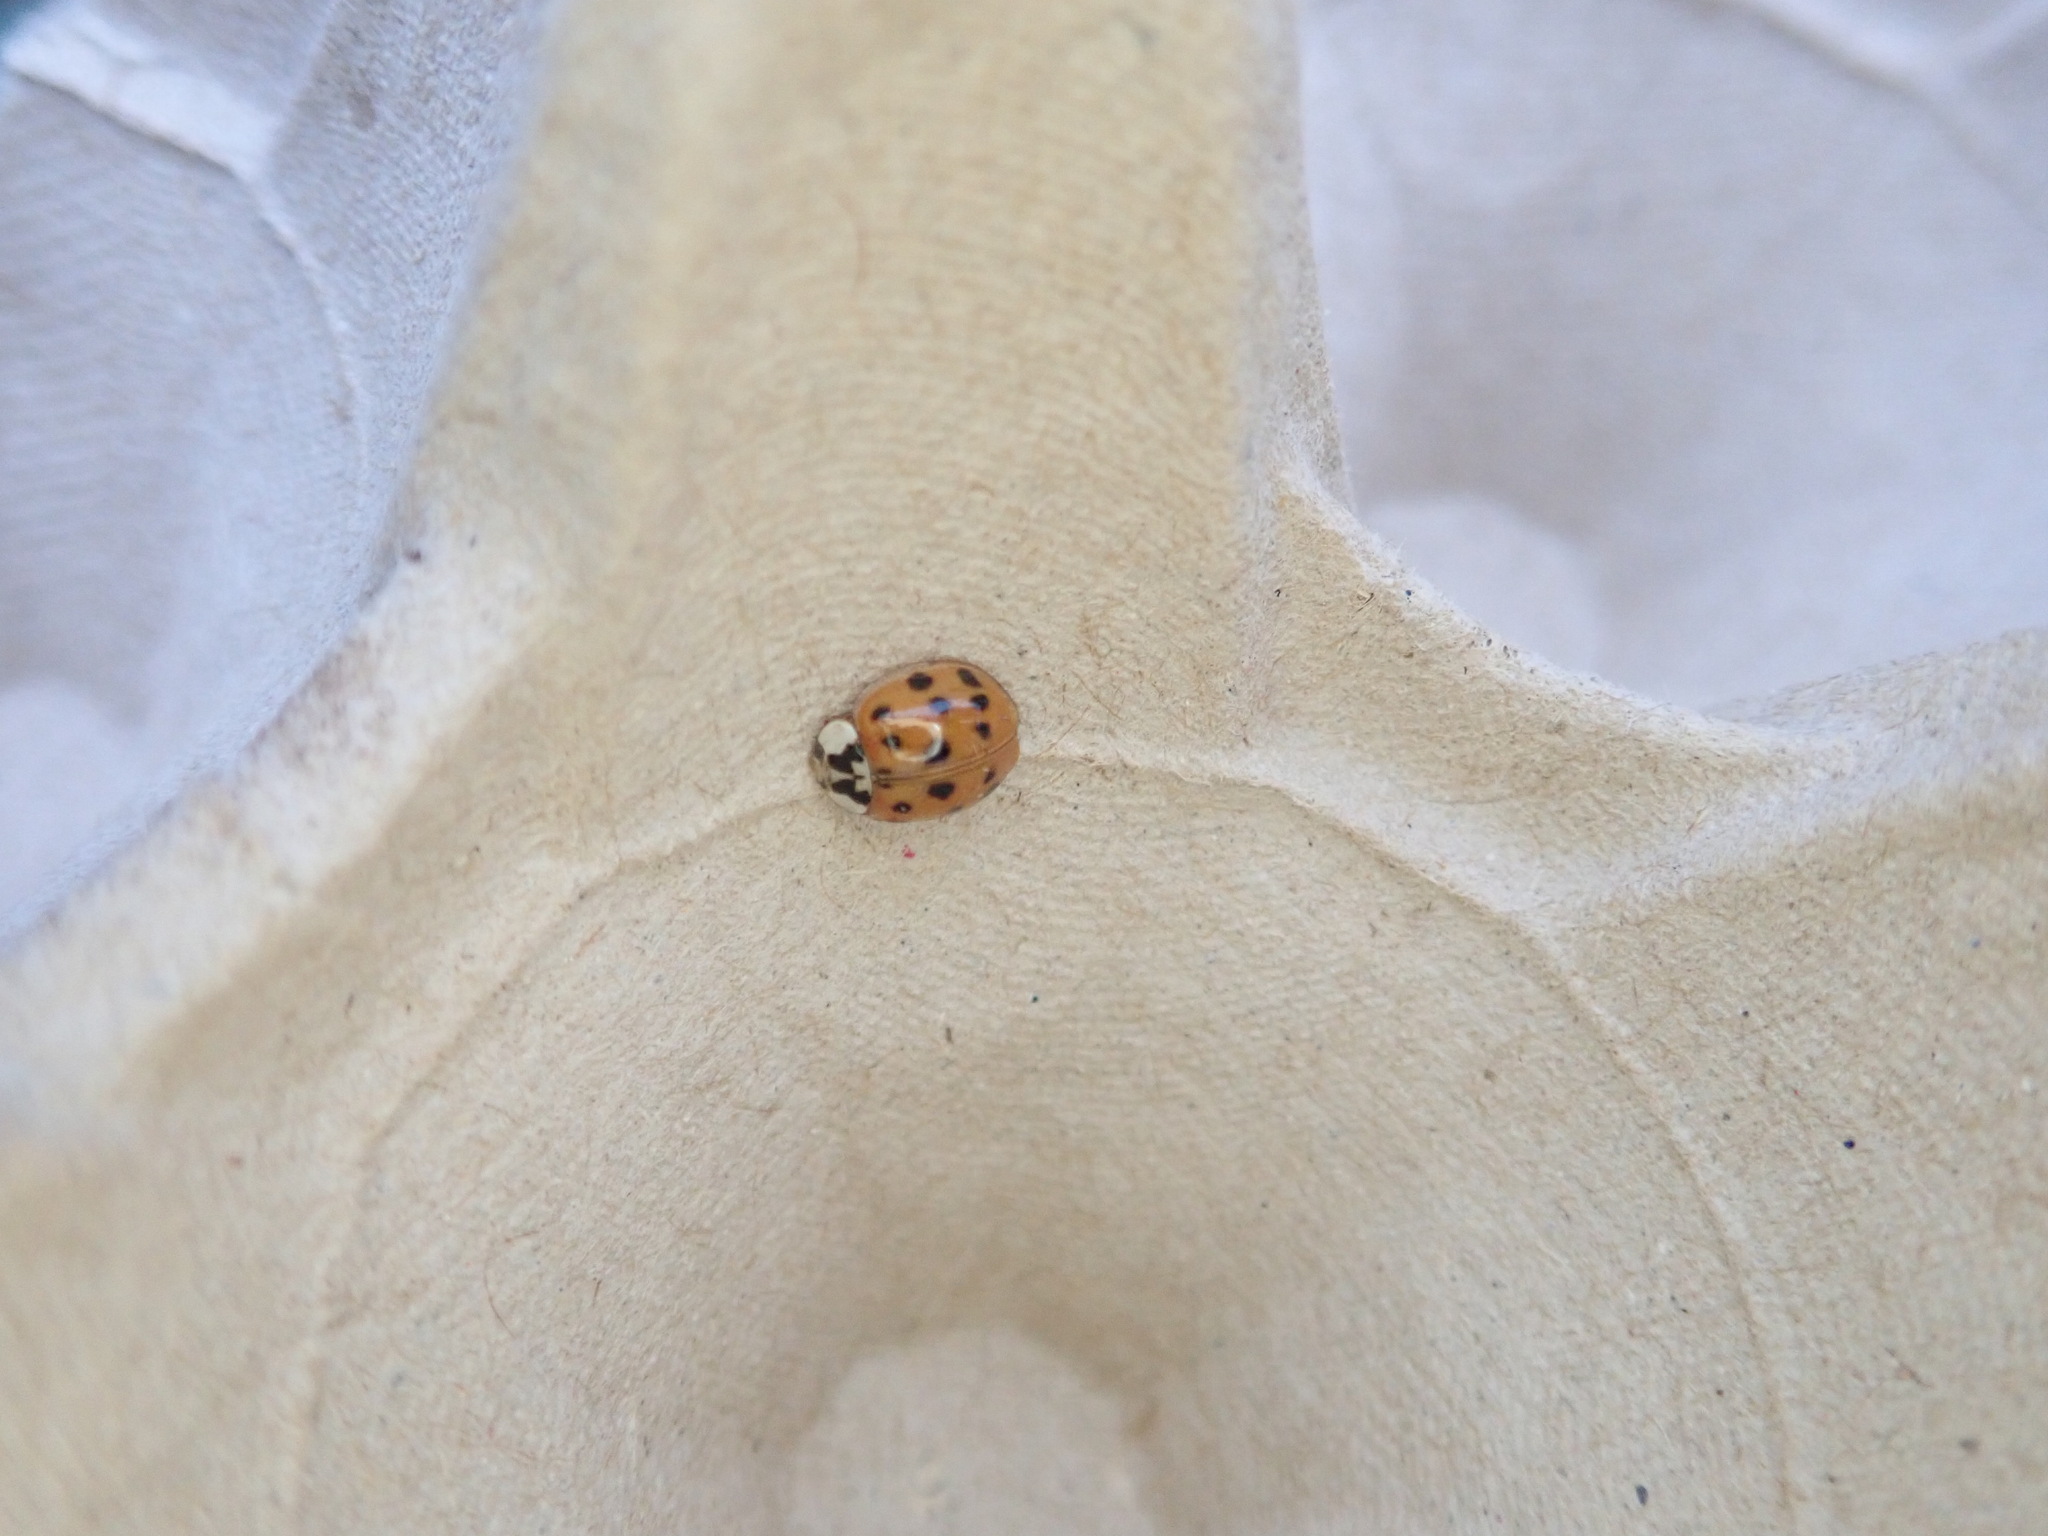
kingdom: Animalia
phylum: Arthropoda
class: Insecta
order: Coleoptera
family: Coccinellidae
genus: Harmonia
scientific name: Harmonia axyridis
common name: Harlequin ladybird
